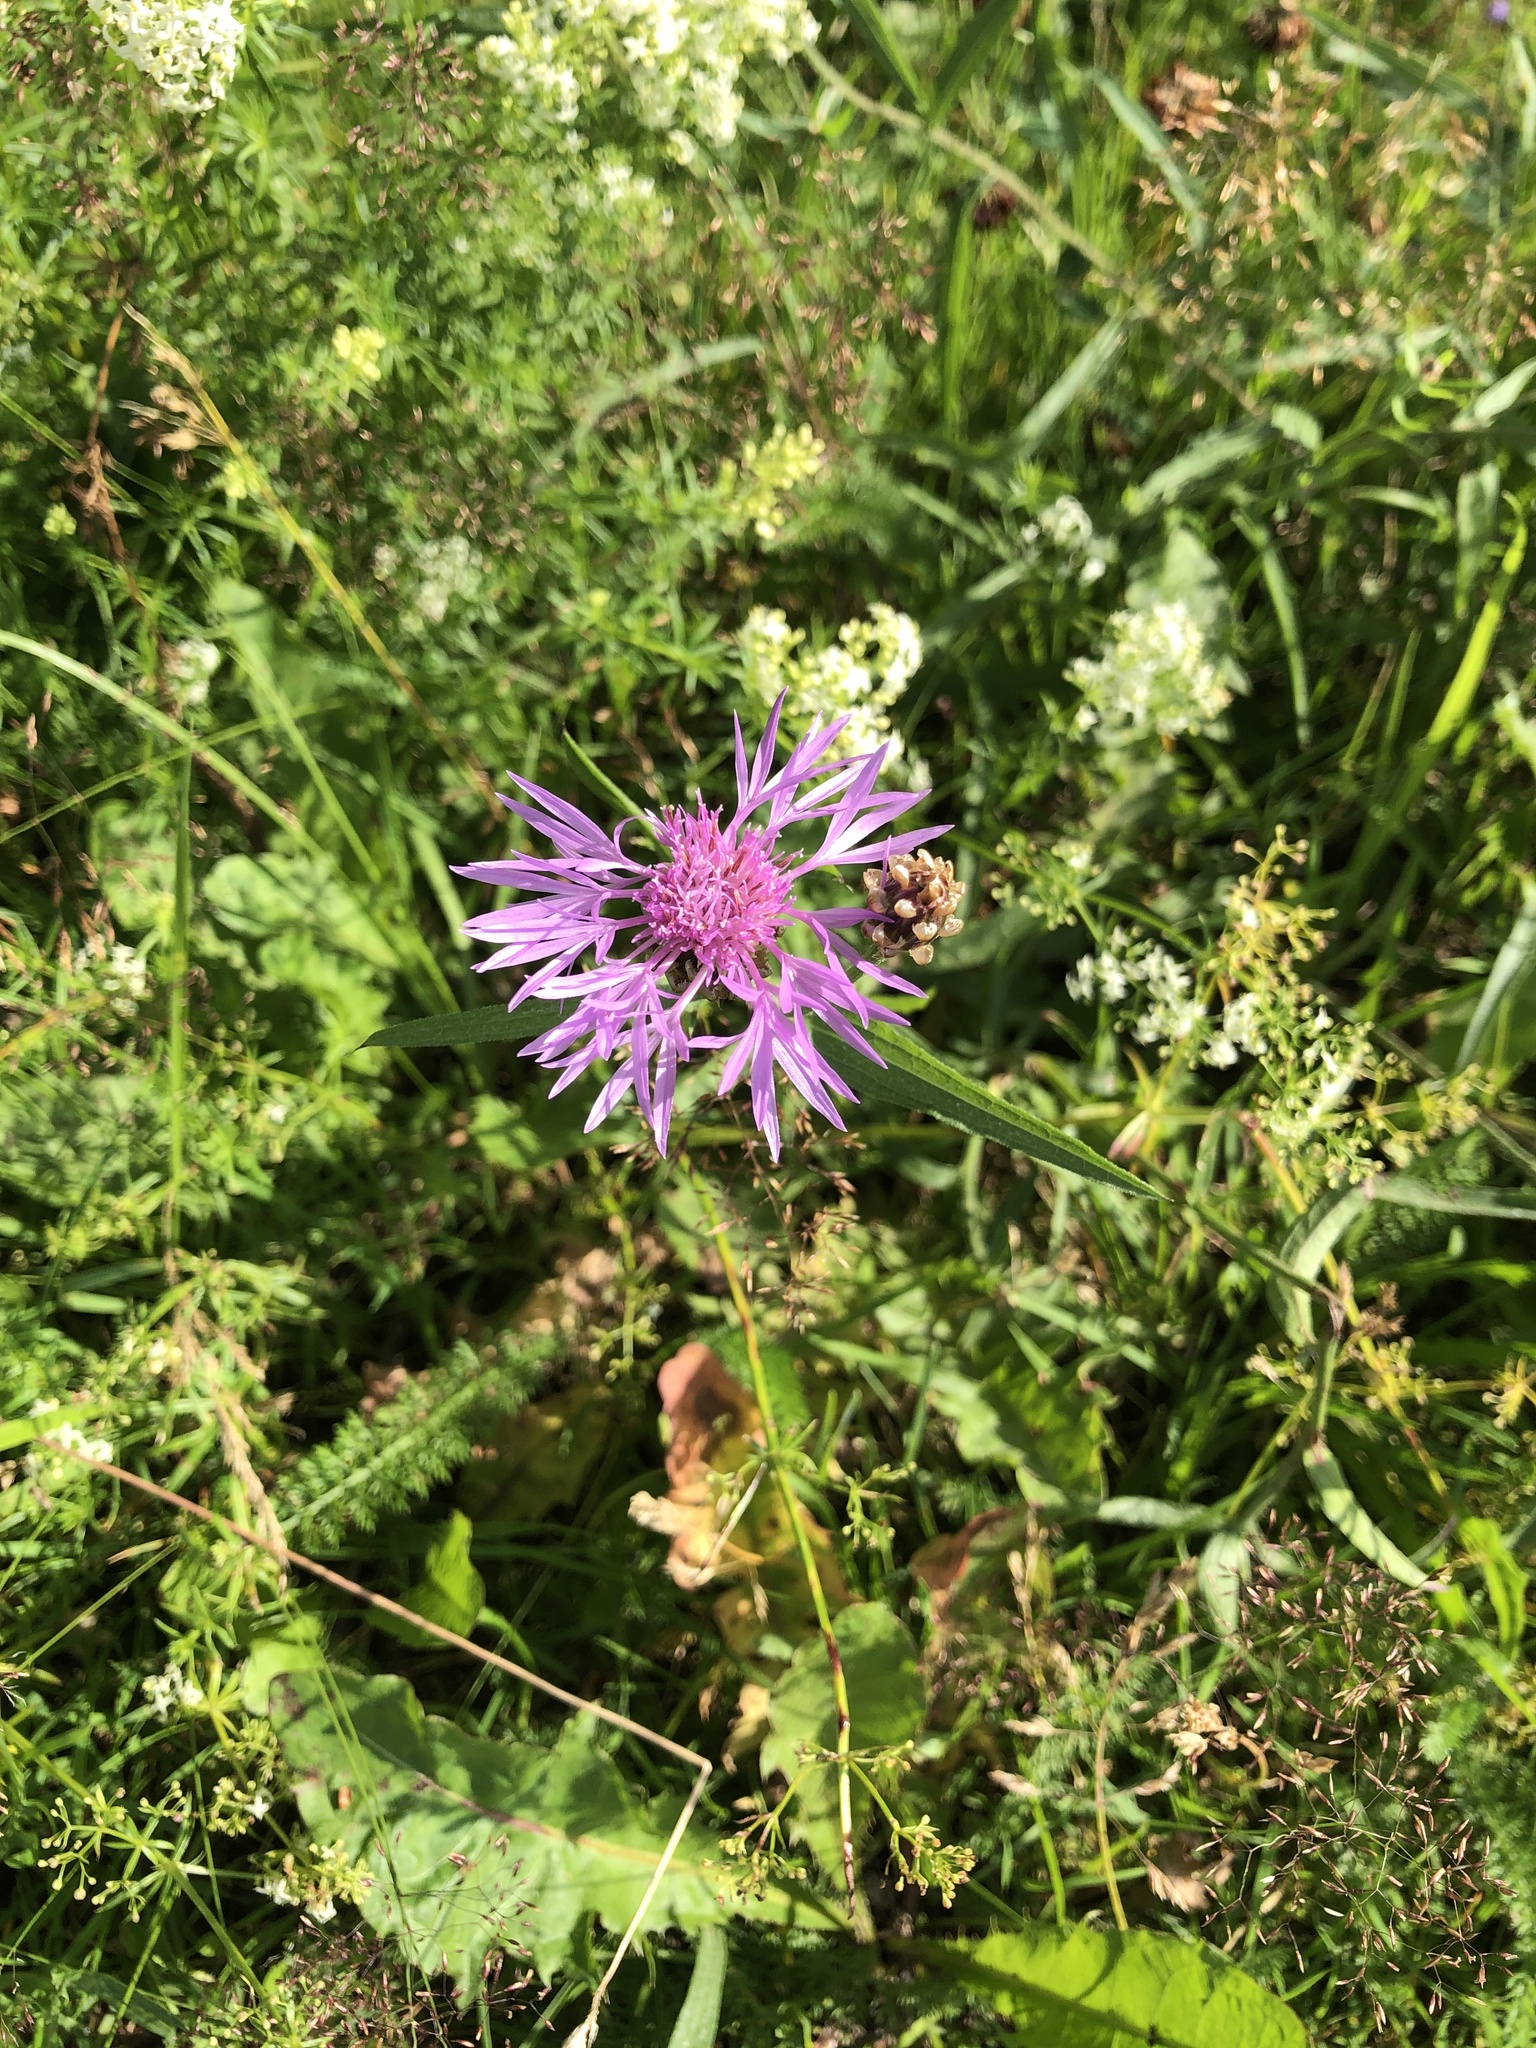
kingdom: Plantae
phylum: Tracheophyta
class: Magnoliopsida
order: Asterales
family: Asteraceae
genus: Centaurea
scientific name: Centaurea jacea
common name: Brown knapweed
